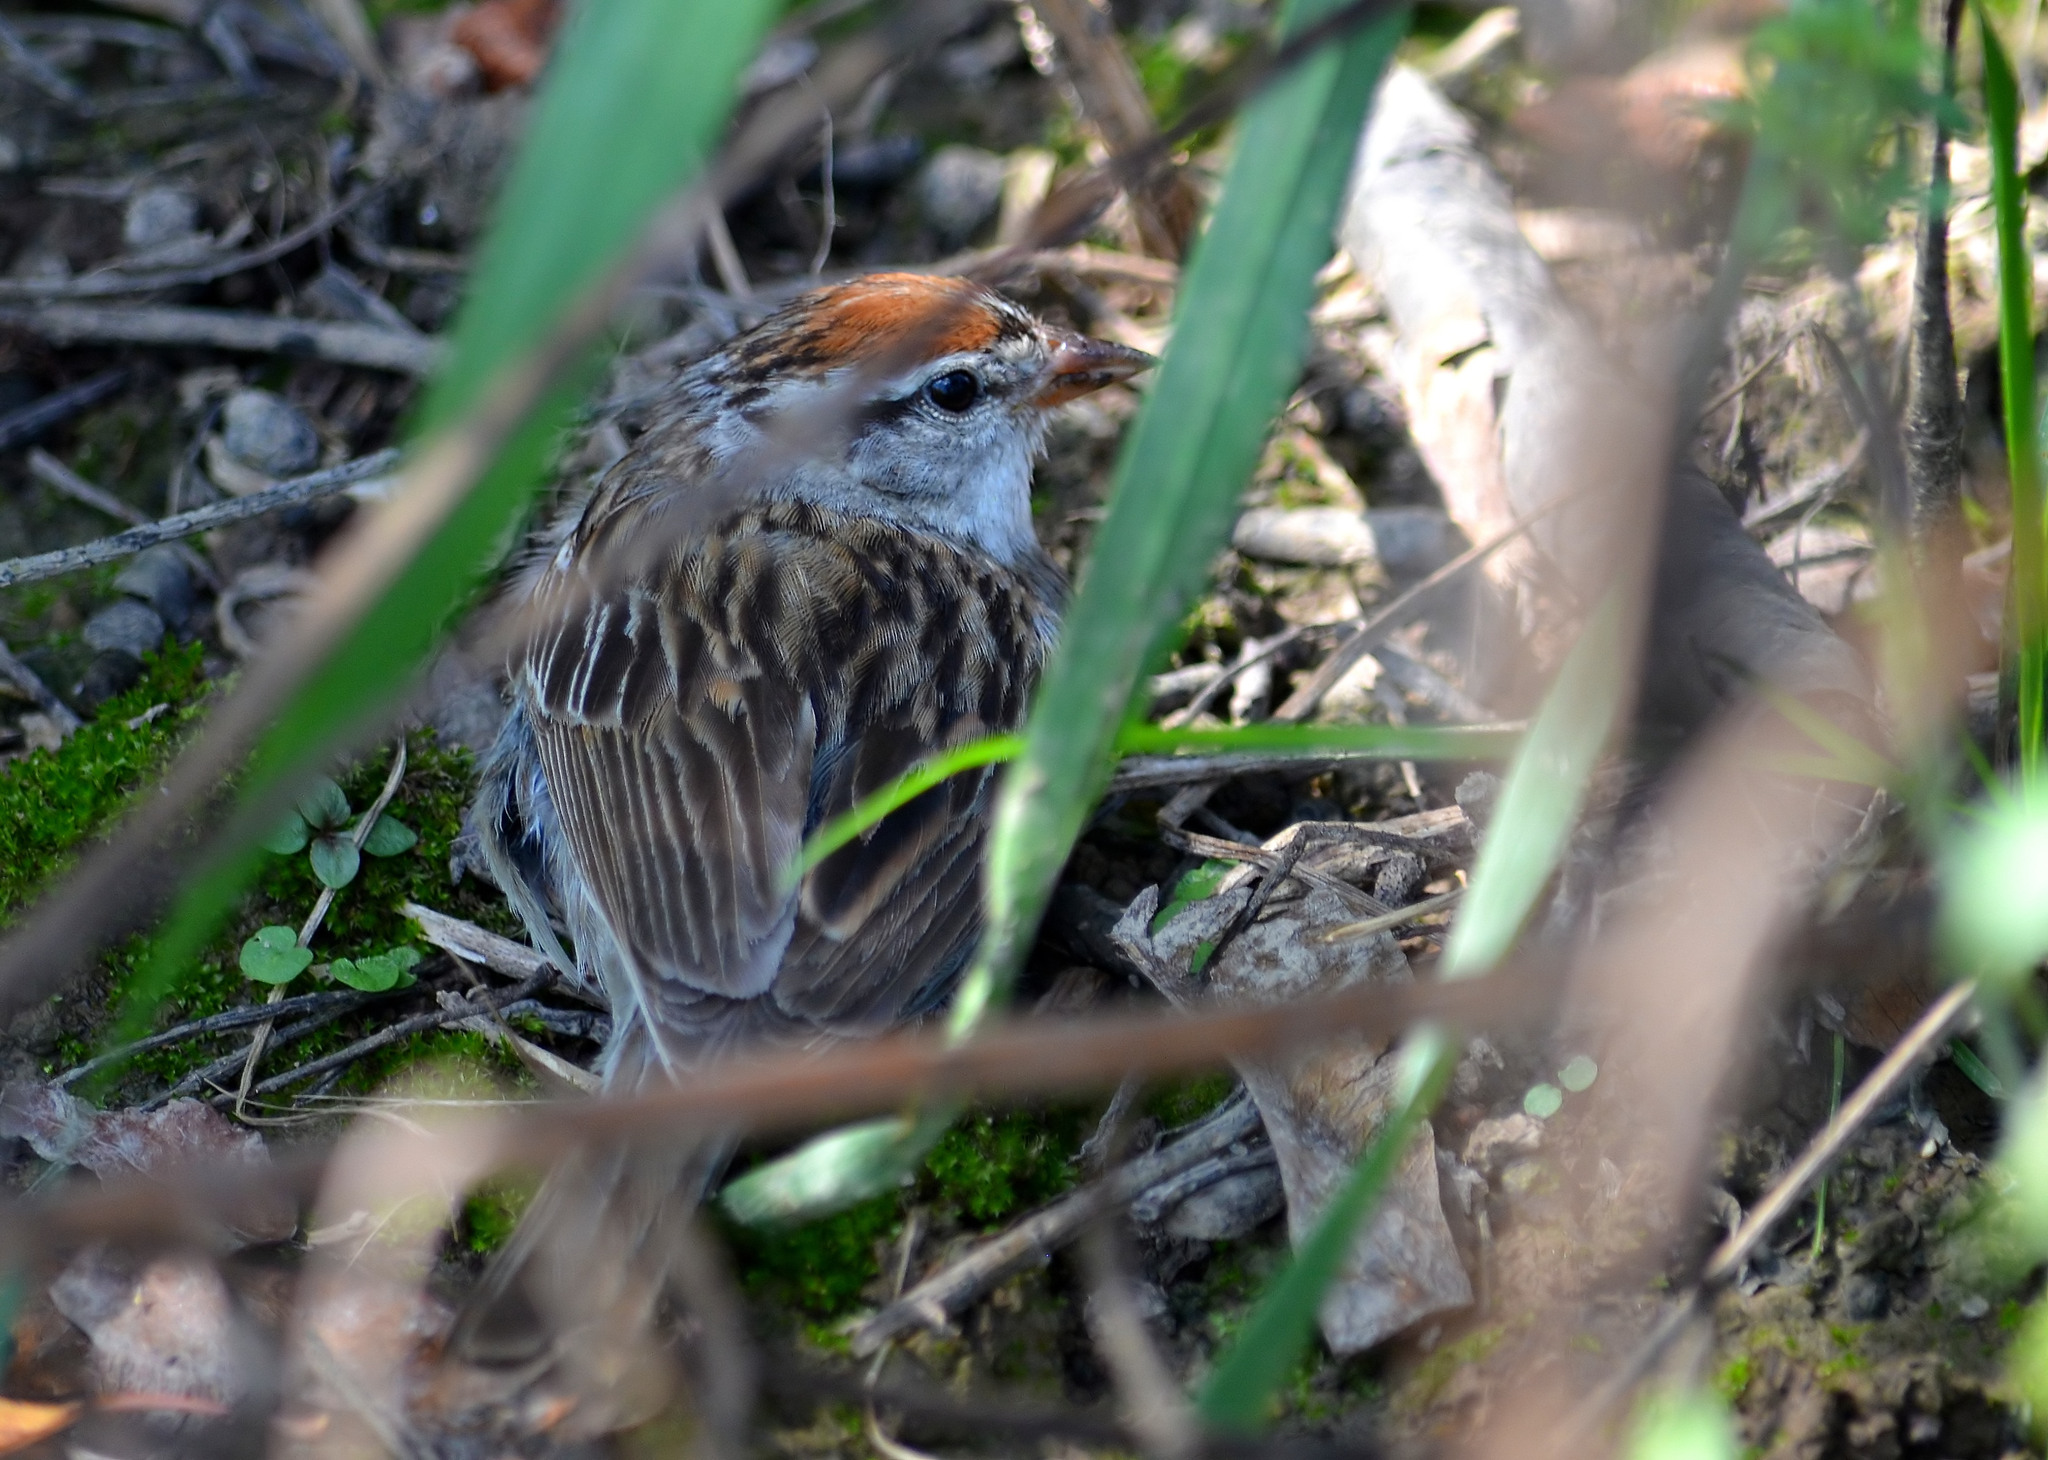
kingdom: Animalia
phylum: Chordata
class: Aves
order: Passeriformes
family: Passerellidae
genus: Spizella
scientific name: Spizella passerina
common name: Chipping sparrow
